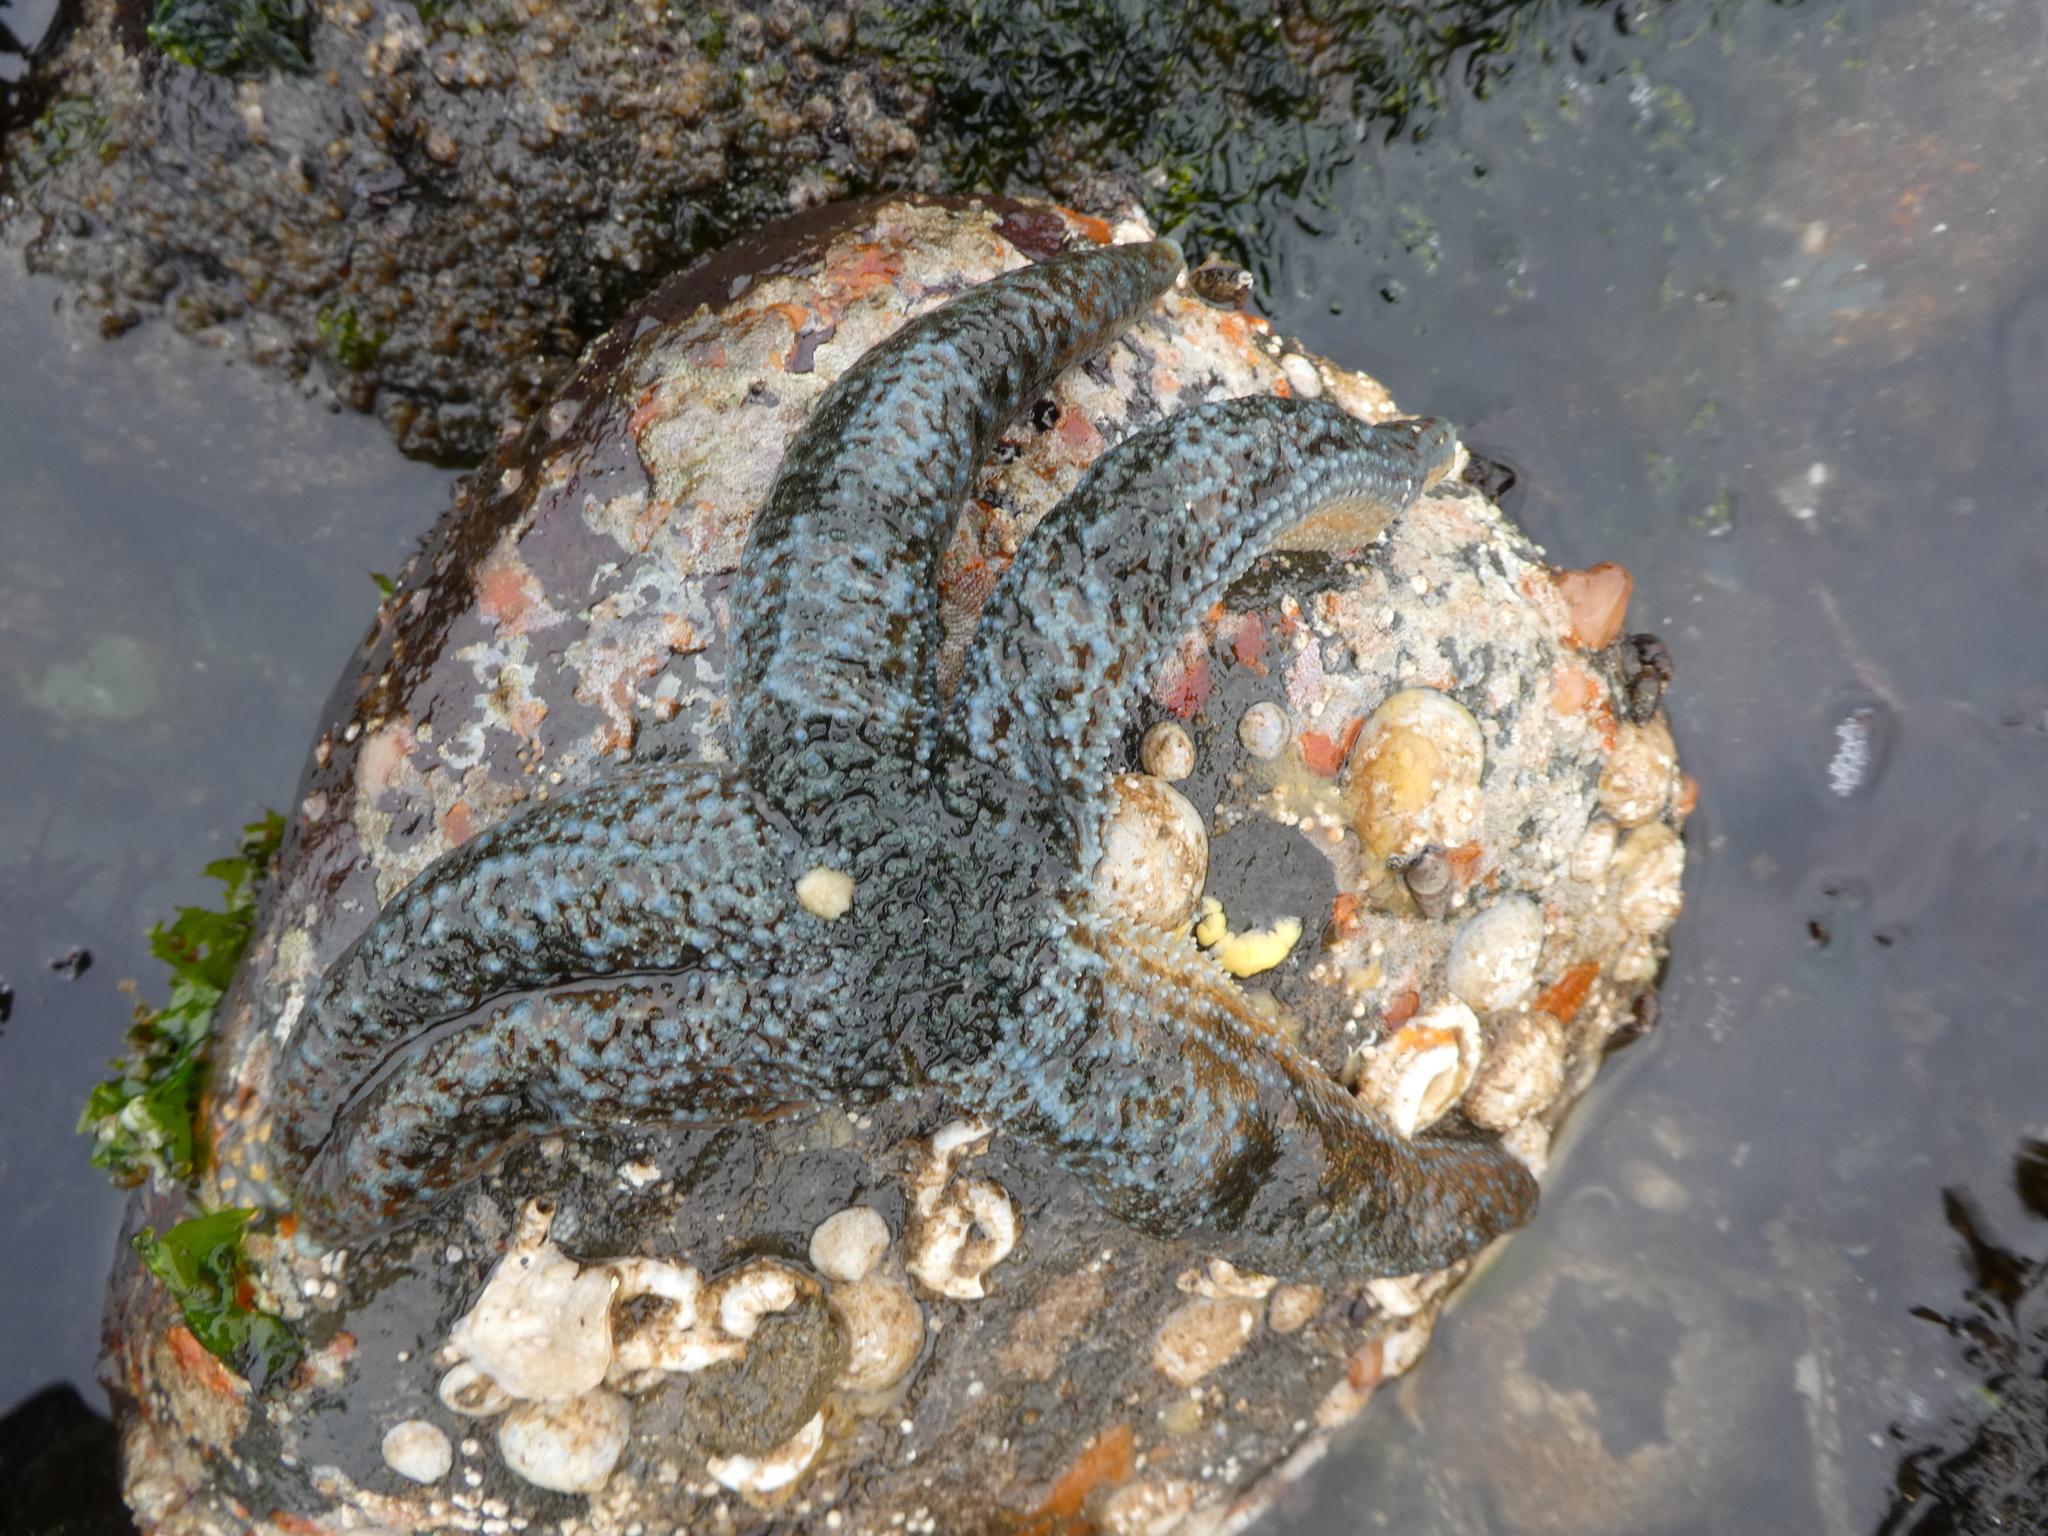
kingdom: Animalia
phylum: Echinodermata
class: Asteroidea
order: Forcipulatida
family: Asteriidae
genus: Evasterias
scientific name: Evasterias troschelii
